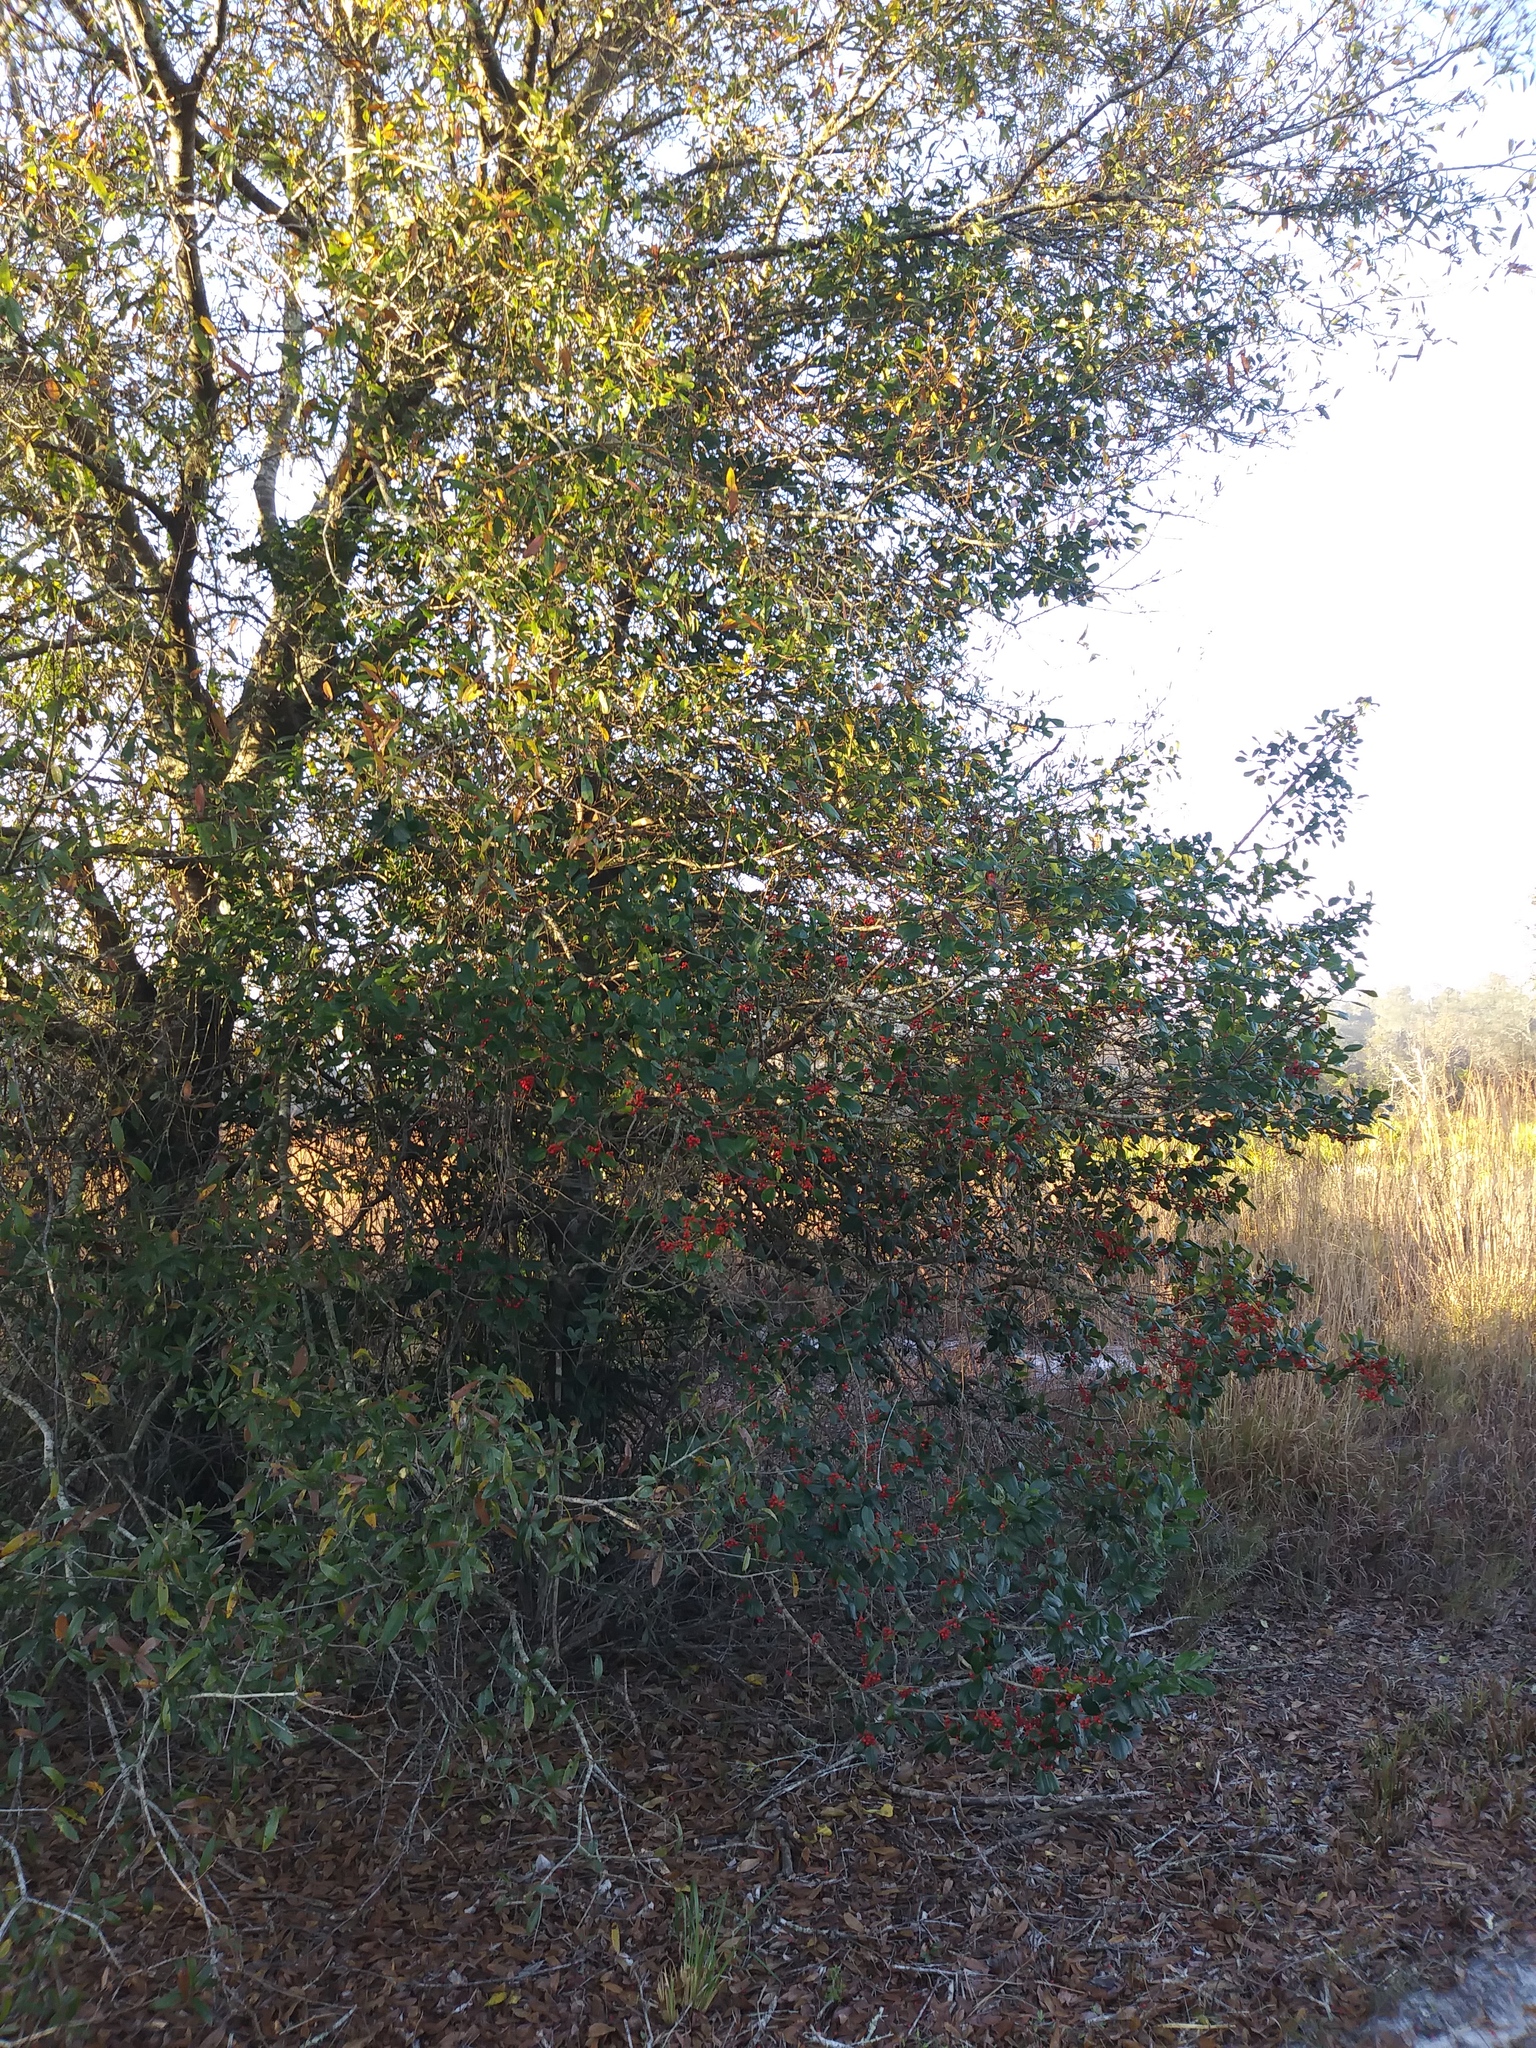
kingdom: Plantae
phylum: Tracheophyta
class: Magnoliopsida
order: Aquifoliales
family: Aquifoliaceae
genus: Ilex
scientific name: Ilex opaca
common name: American holly
